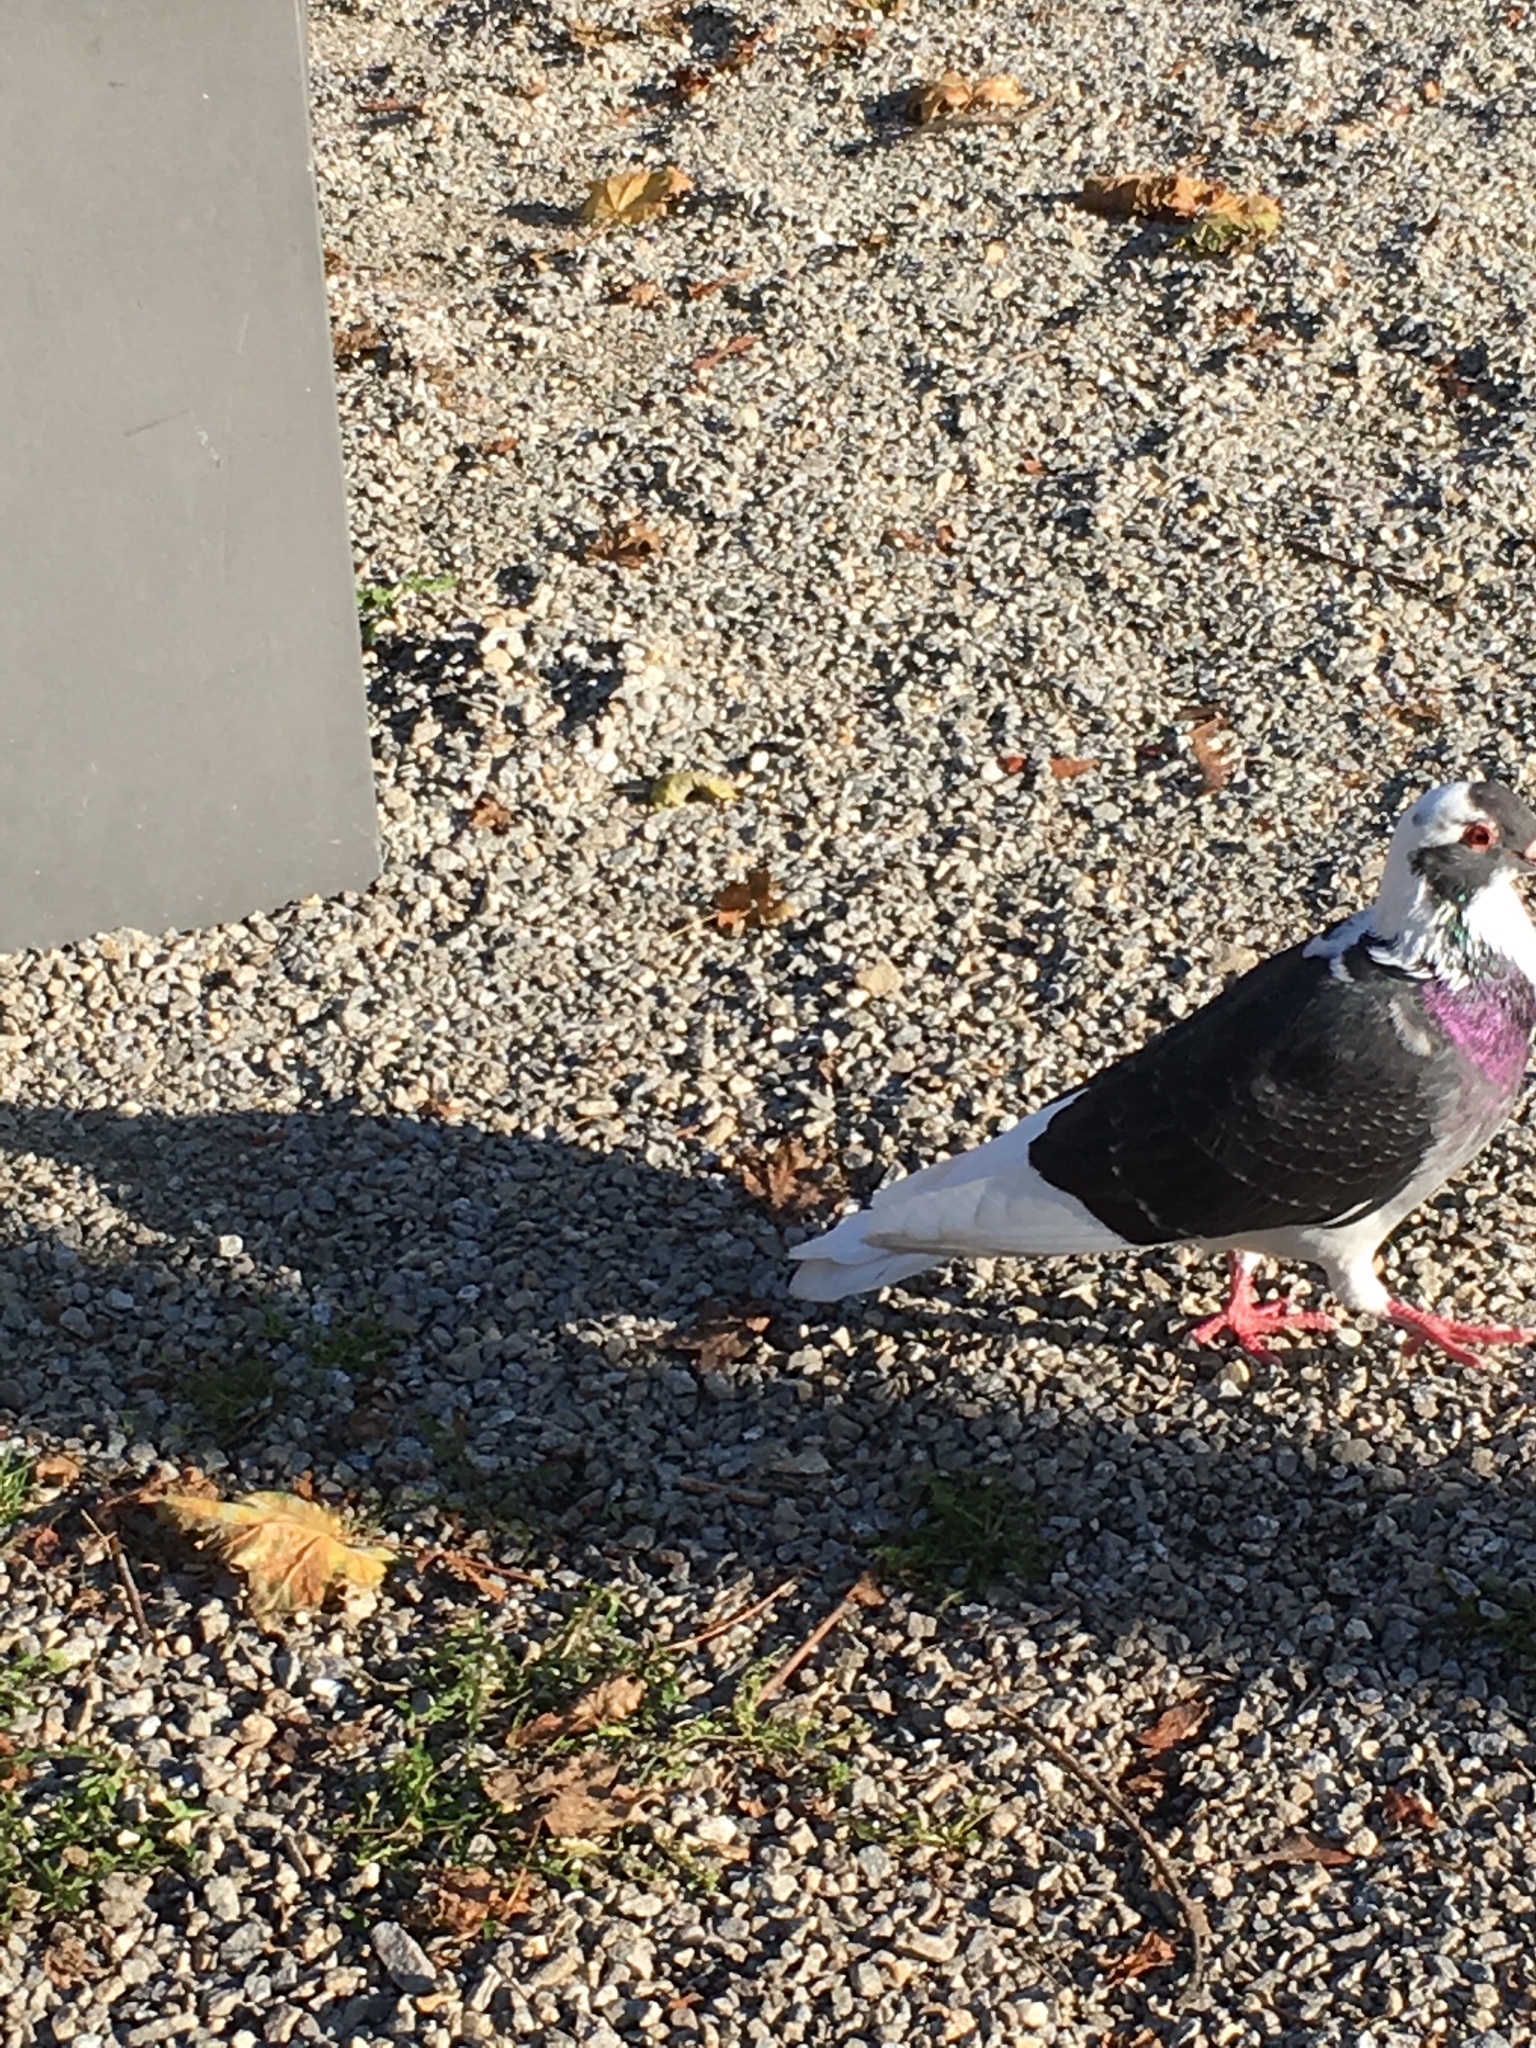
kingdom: Animalia
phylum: Chordata
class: Aves
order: Columbiformes
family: Columbidae
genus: Columba
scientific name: Columba livia
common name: Rock pigeon
